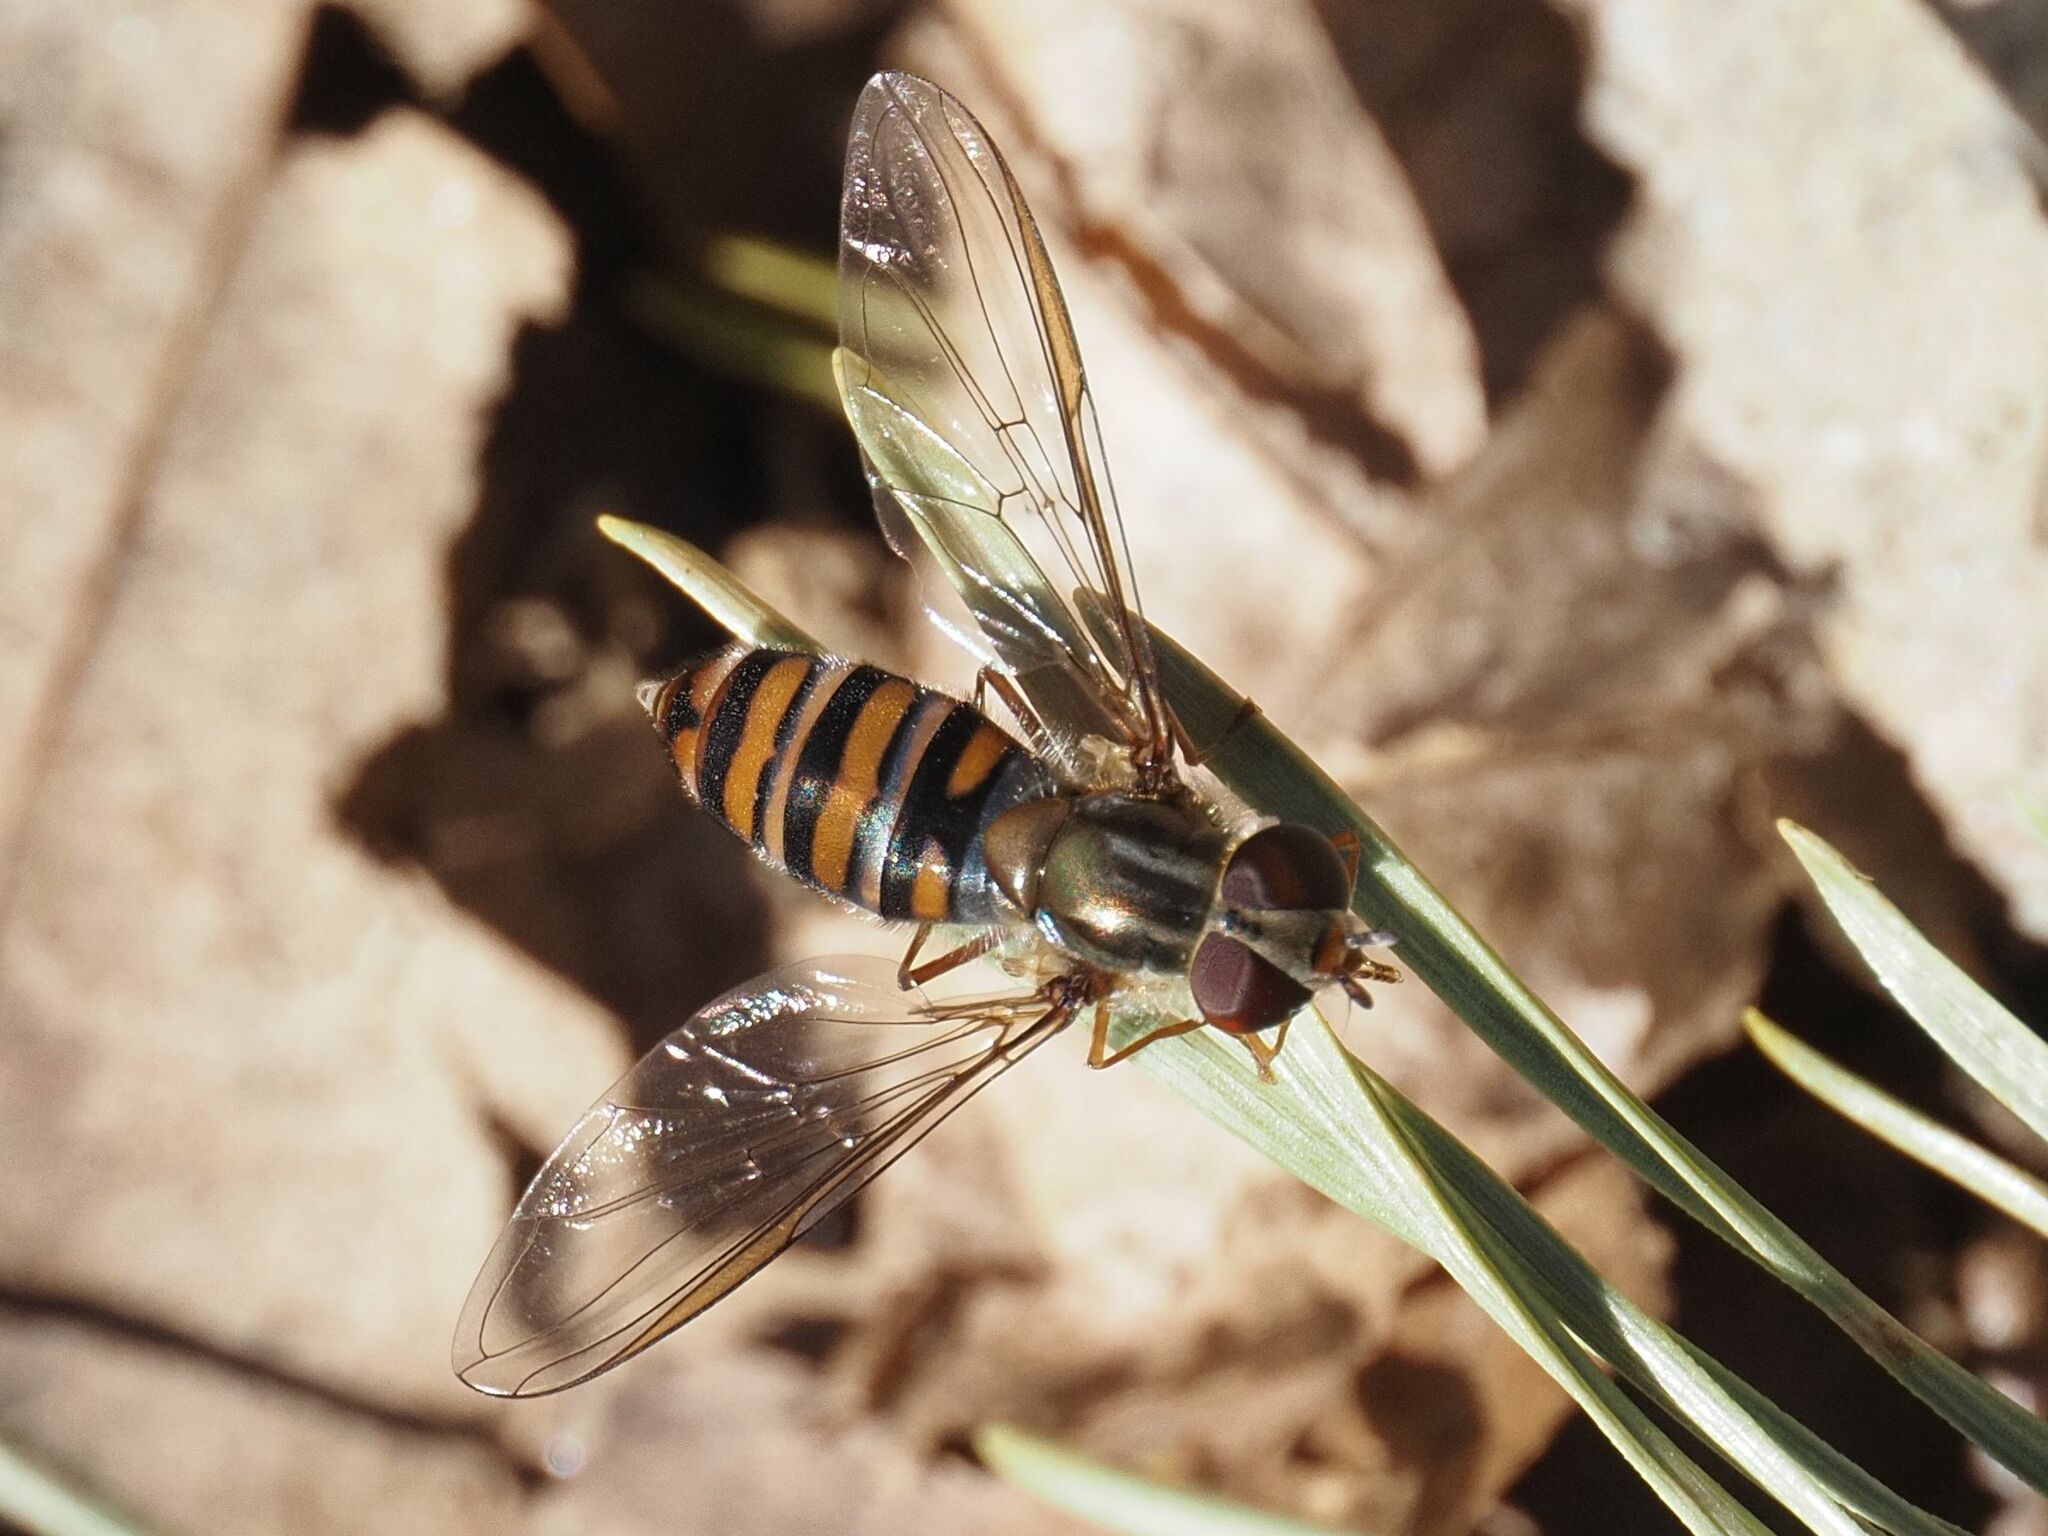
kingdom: Animalia
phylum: Arthropoda
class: Insecta
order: Diptera
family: Syrphidae
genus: Episyrphus
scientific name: Episyrphus balteatus
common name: Marmalade hoverfly
